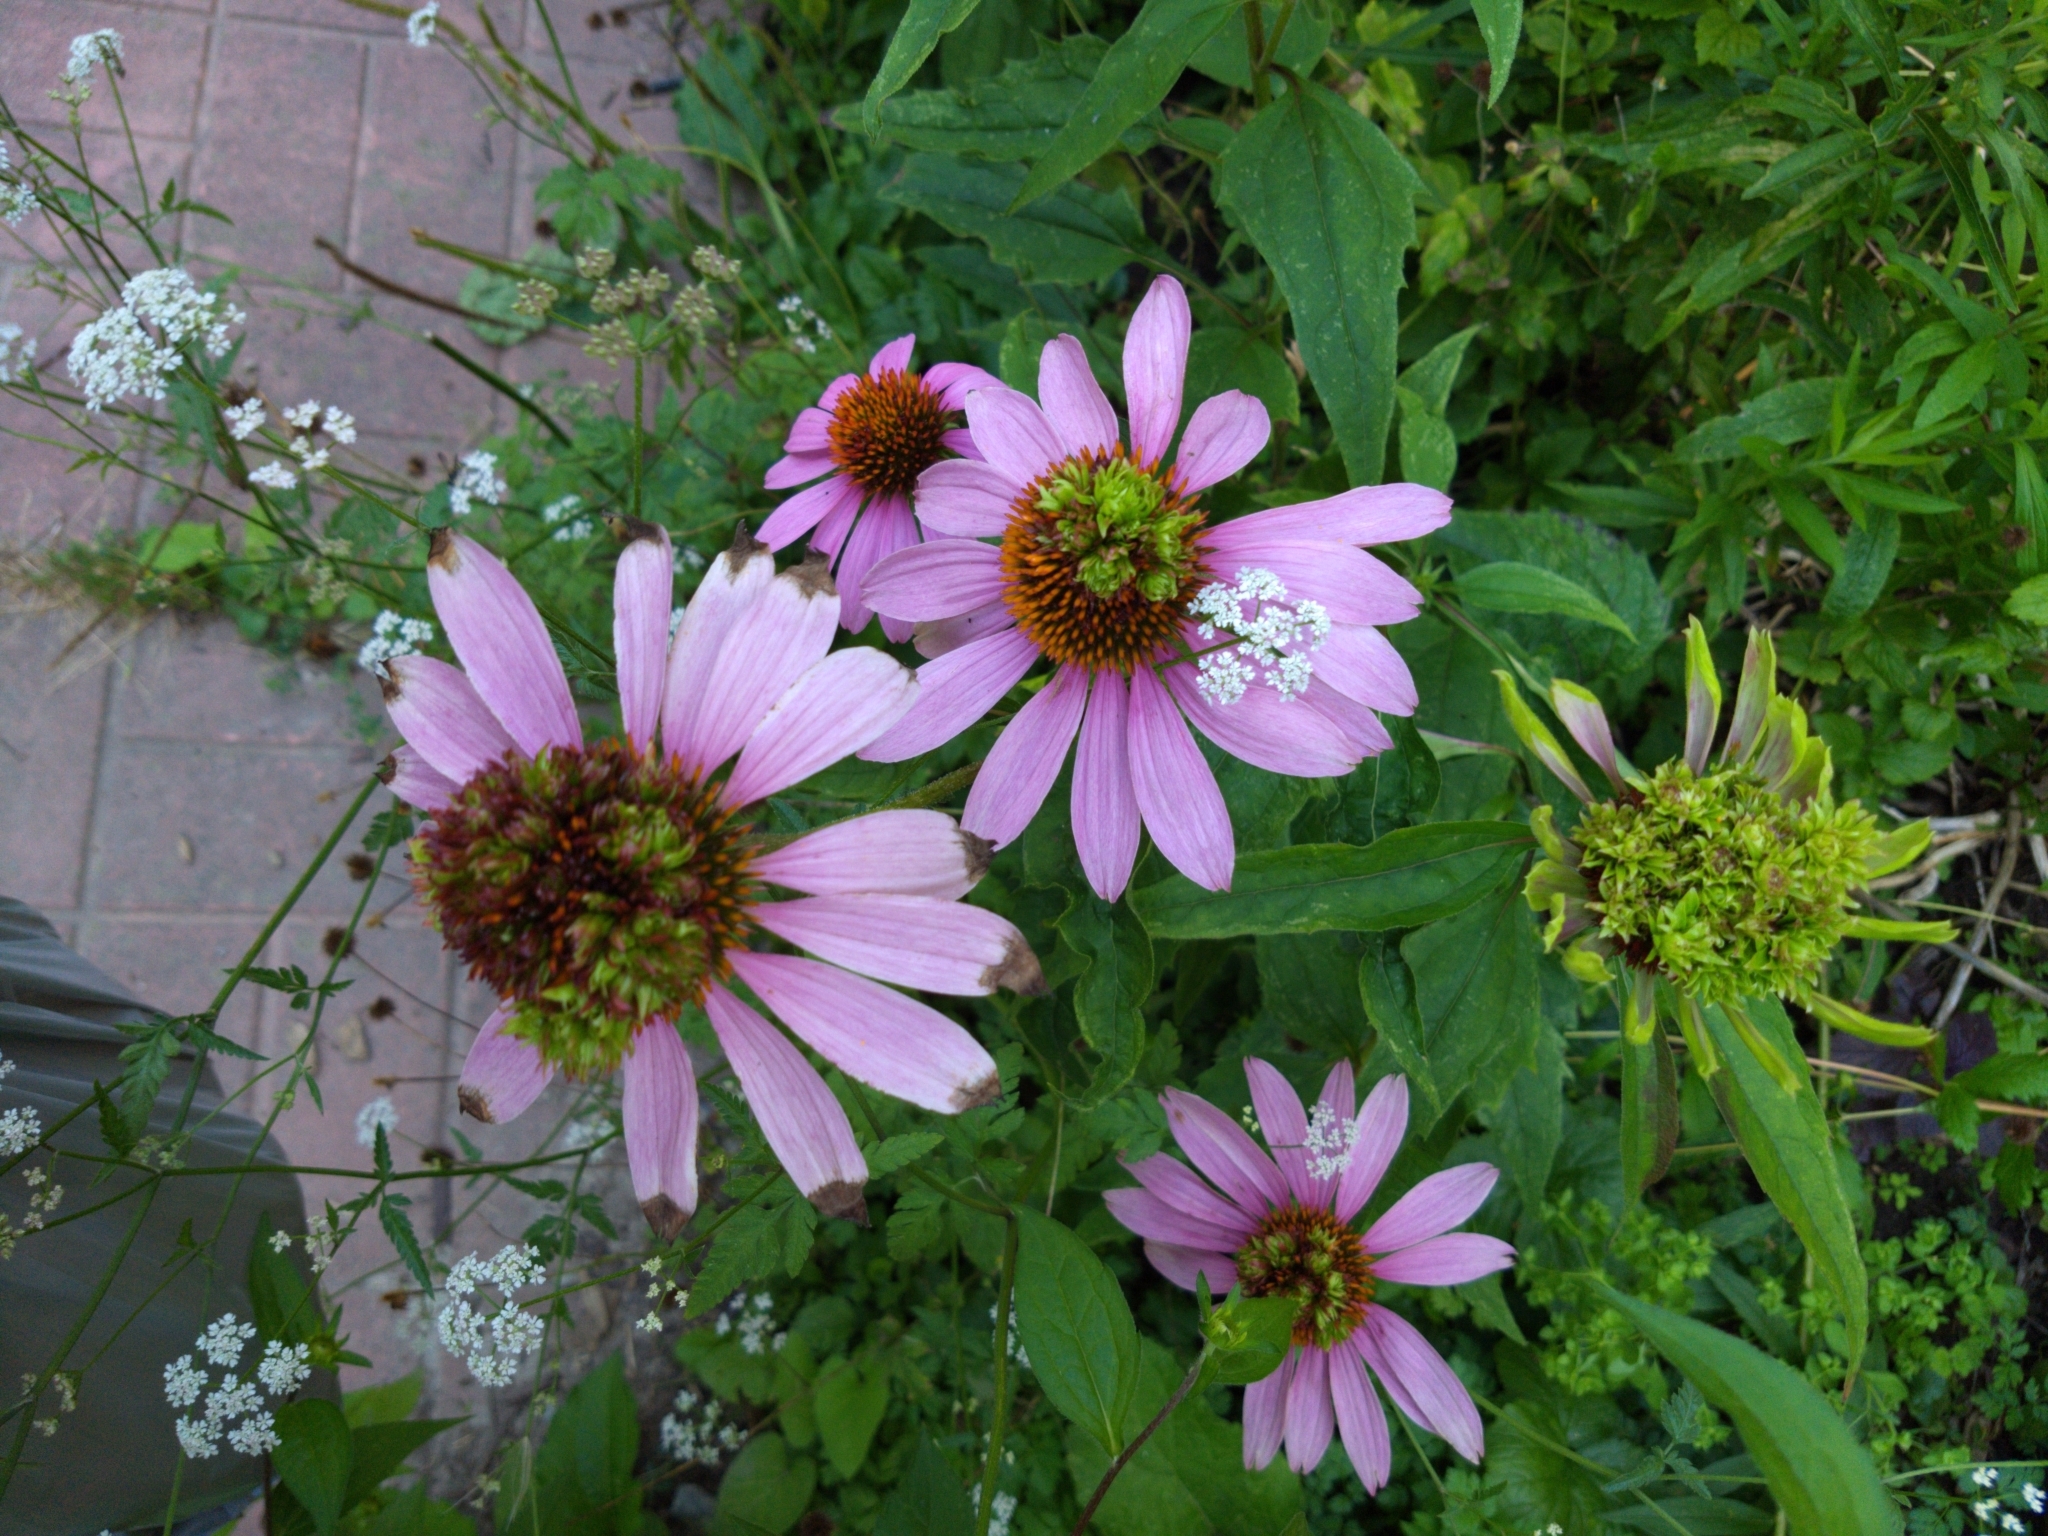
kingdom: Bacteria
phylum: Firmicutes
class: Bacilli
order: Acholeplasmatales
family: Acholeplasmataceae
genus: Phytoplasma
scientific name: Phytoplasma
